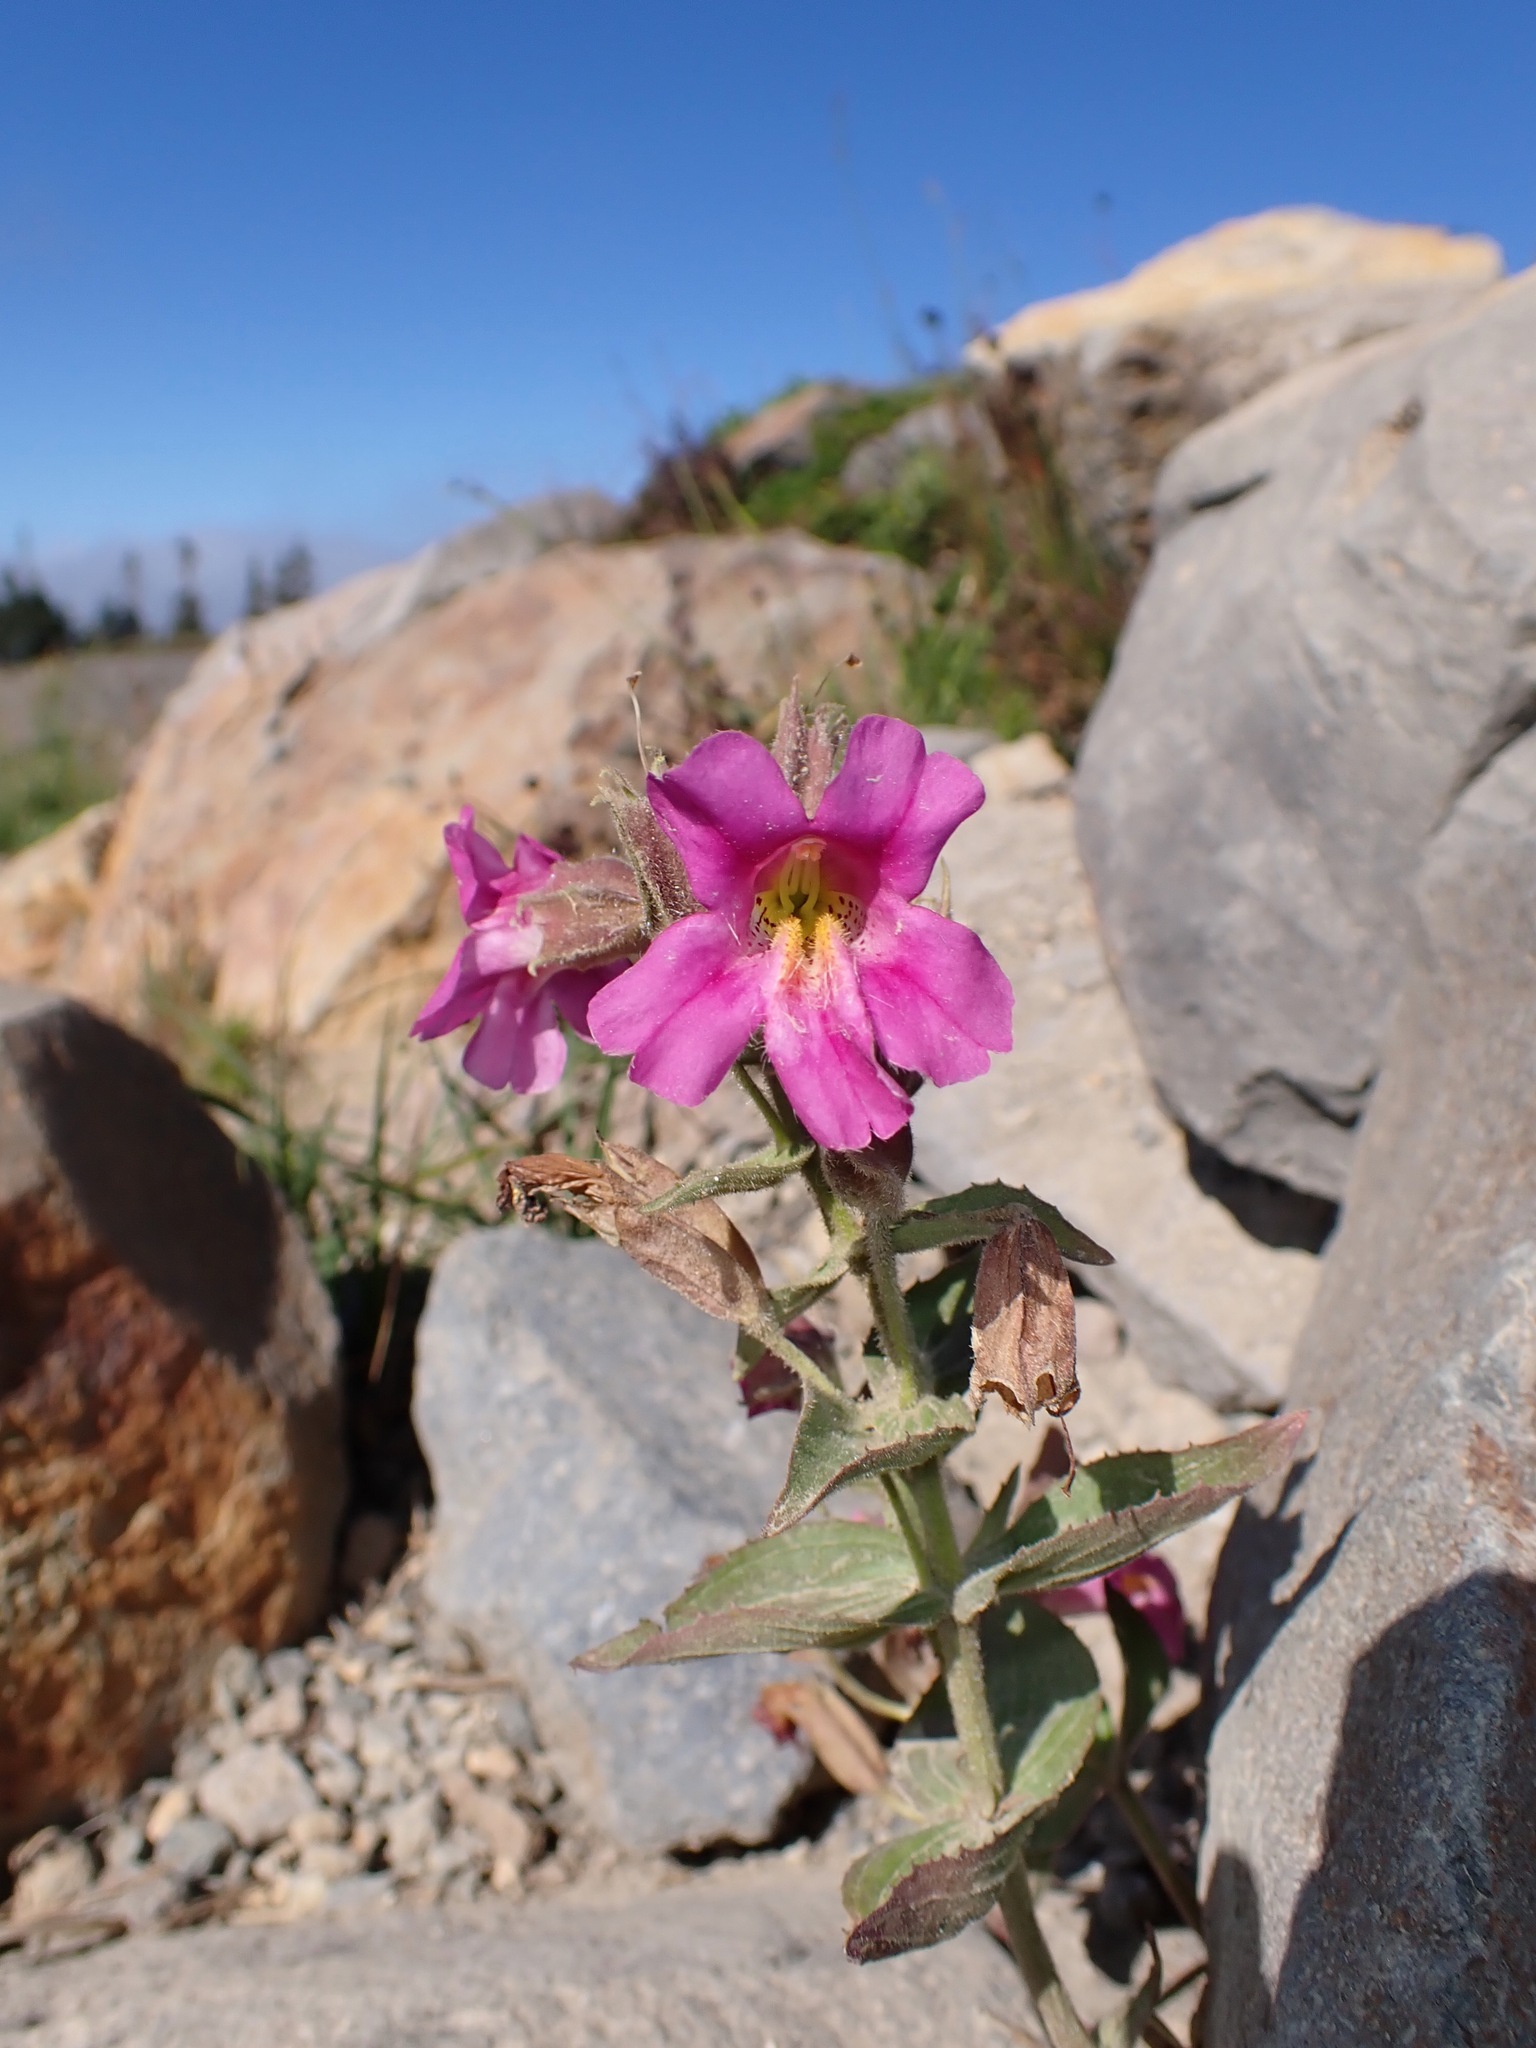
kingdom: Plantae
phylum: Tracheophyta
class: Magnoliopsida
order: Lamiales
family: Phrymaceae
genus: Erythranthe
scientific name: Erythranthe lewisii
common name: Lewis's monkey-flower
